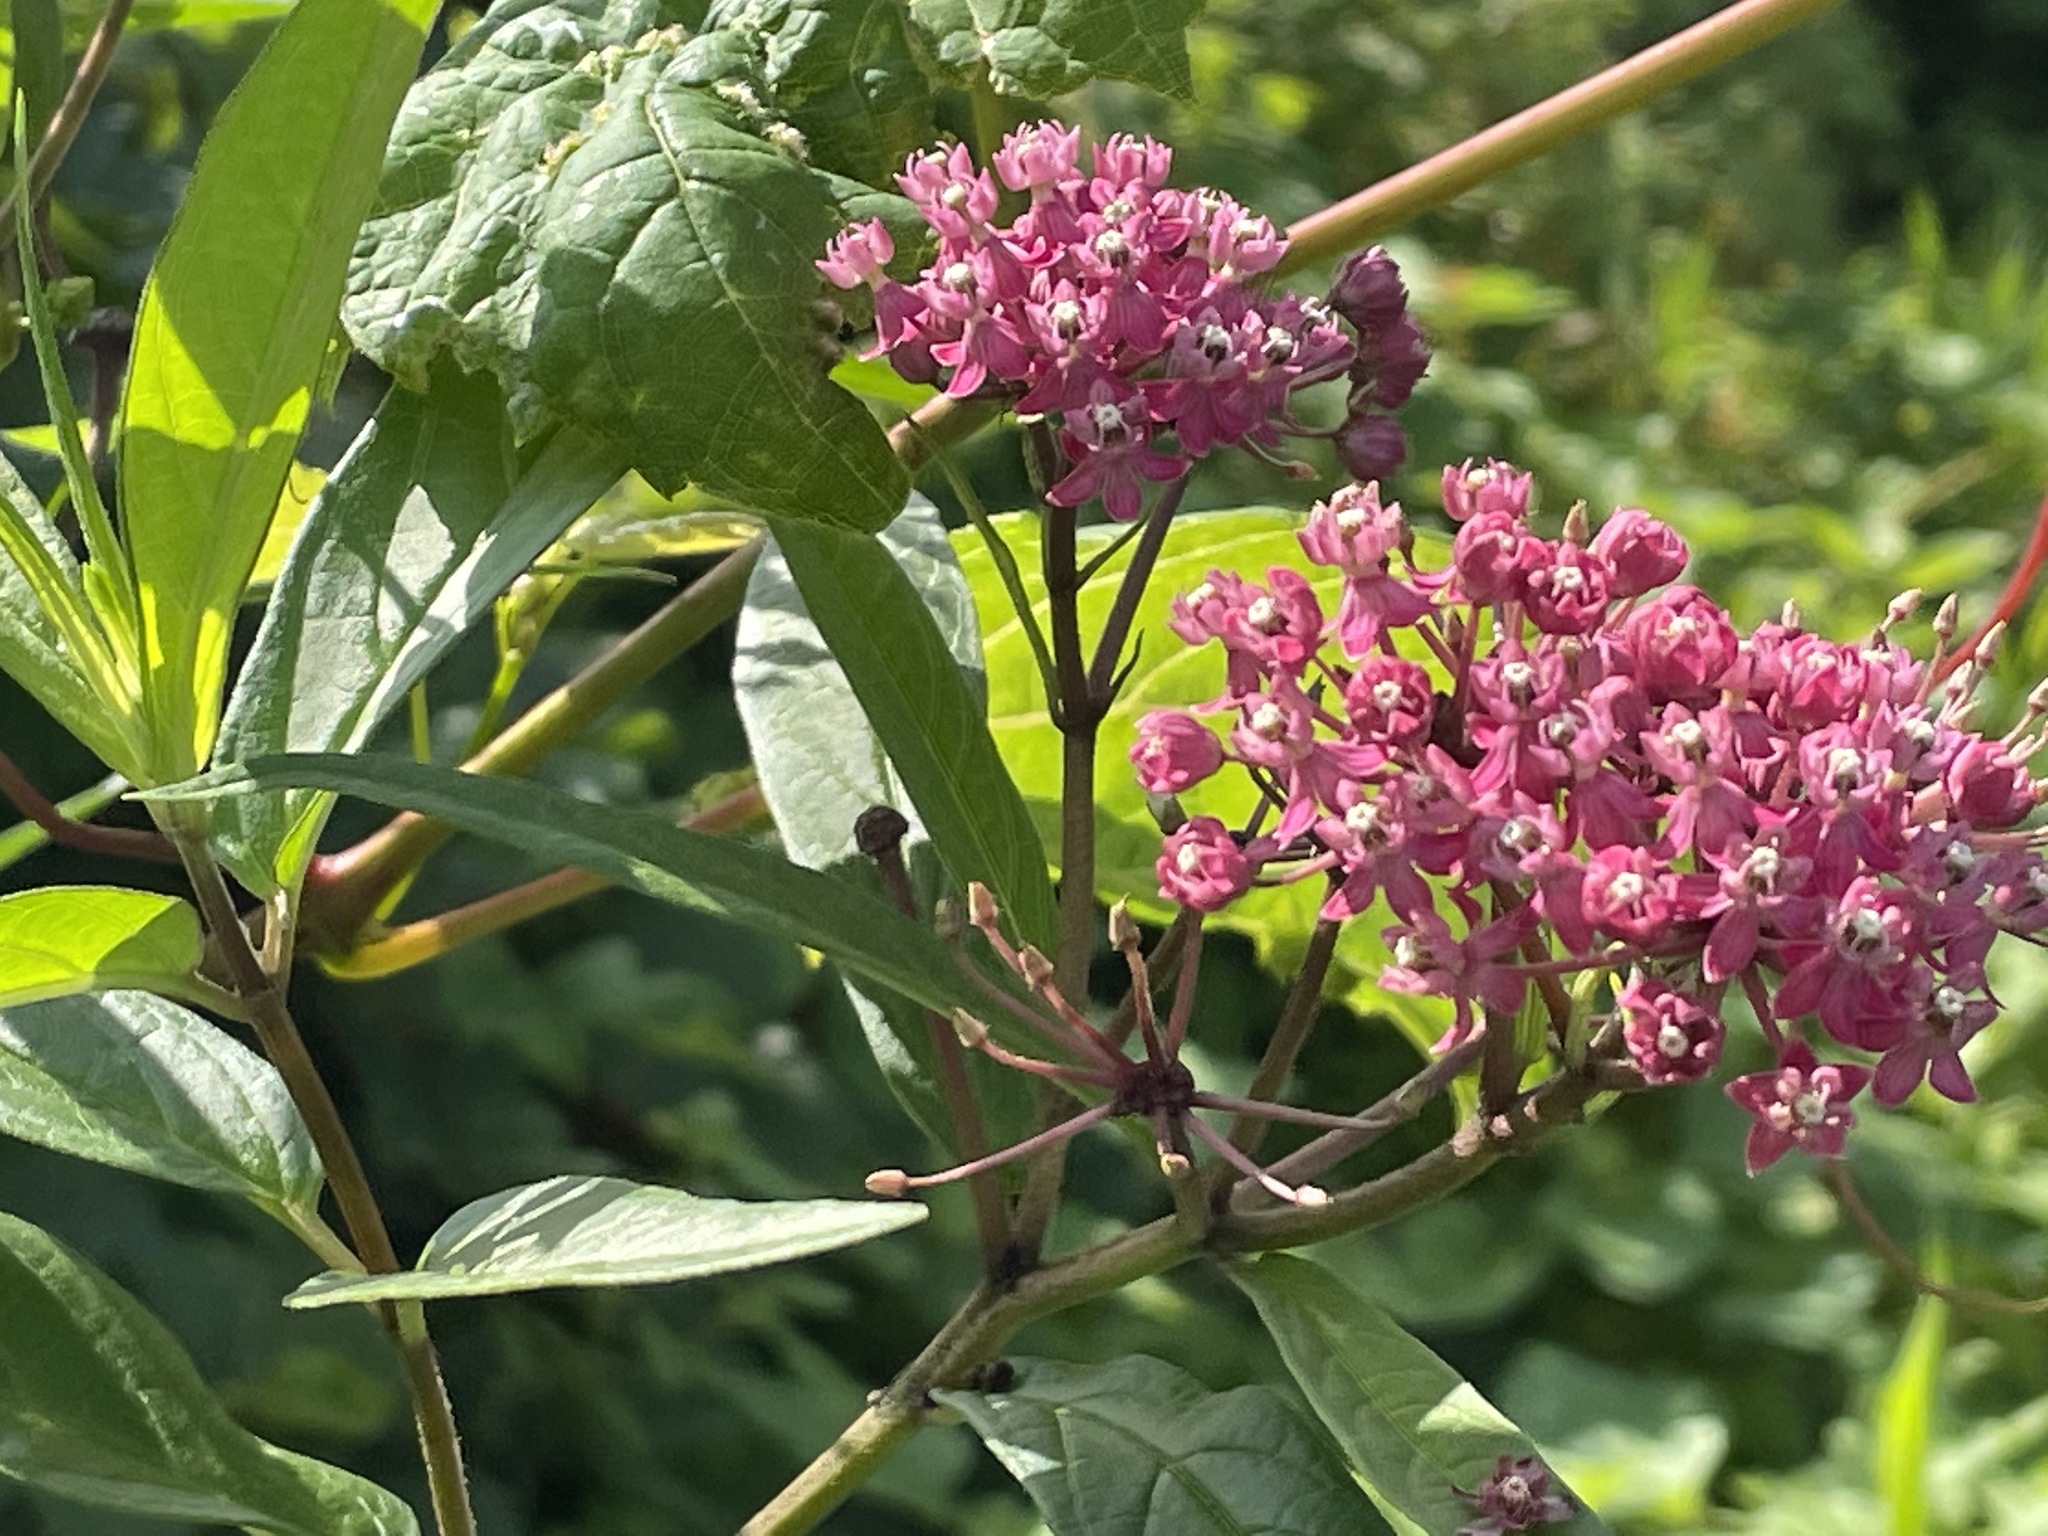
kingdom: Plantae
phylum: Tracheophyta
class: Magnoliopsida
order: Gentianales
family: Apocynaceae
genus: Asclepias
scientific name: Asclepias incarnata
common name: Swamp milkweed
